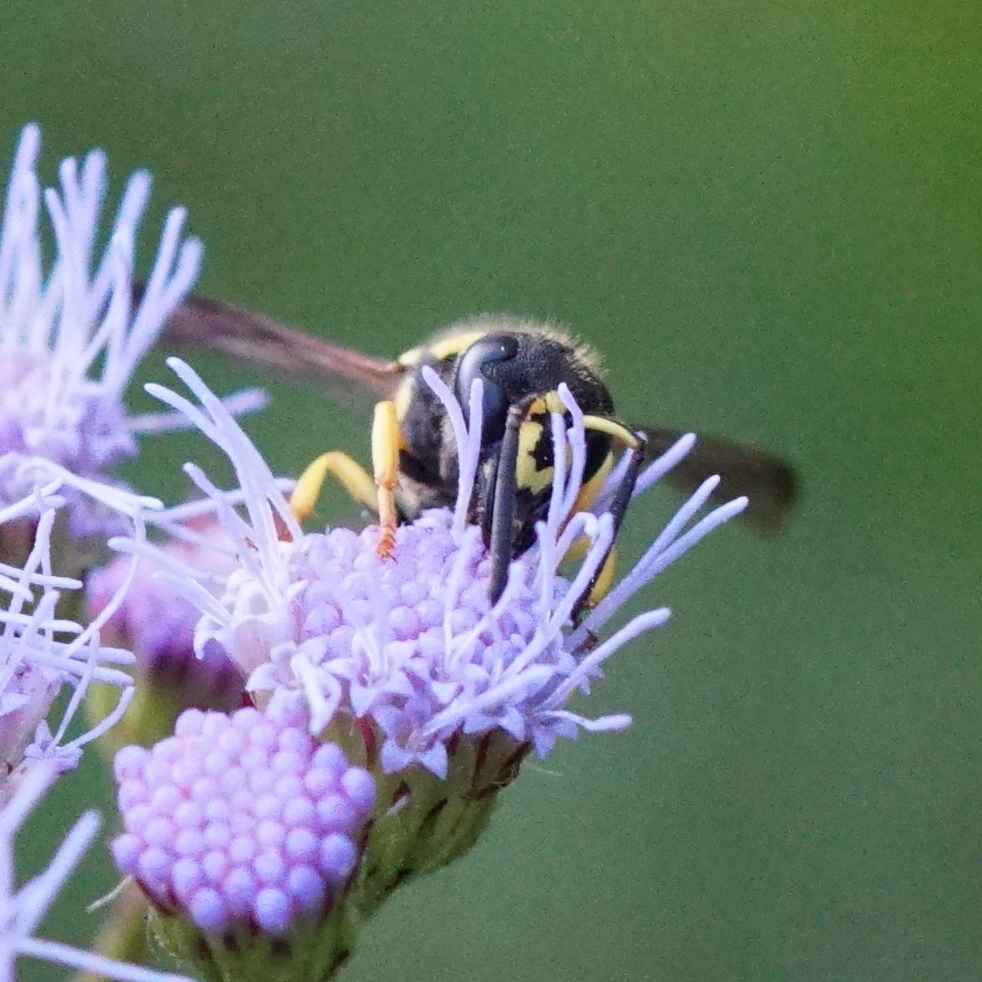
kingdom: Animalia
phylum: Arthropoda
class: Insecta
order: Hymenoptera
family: Vespidae
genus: Ancistrocerus
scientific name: Ancistrocerus
